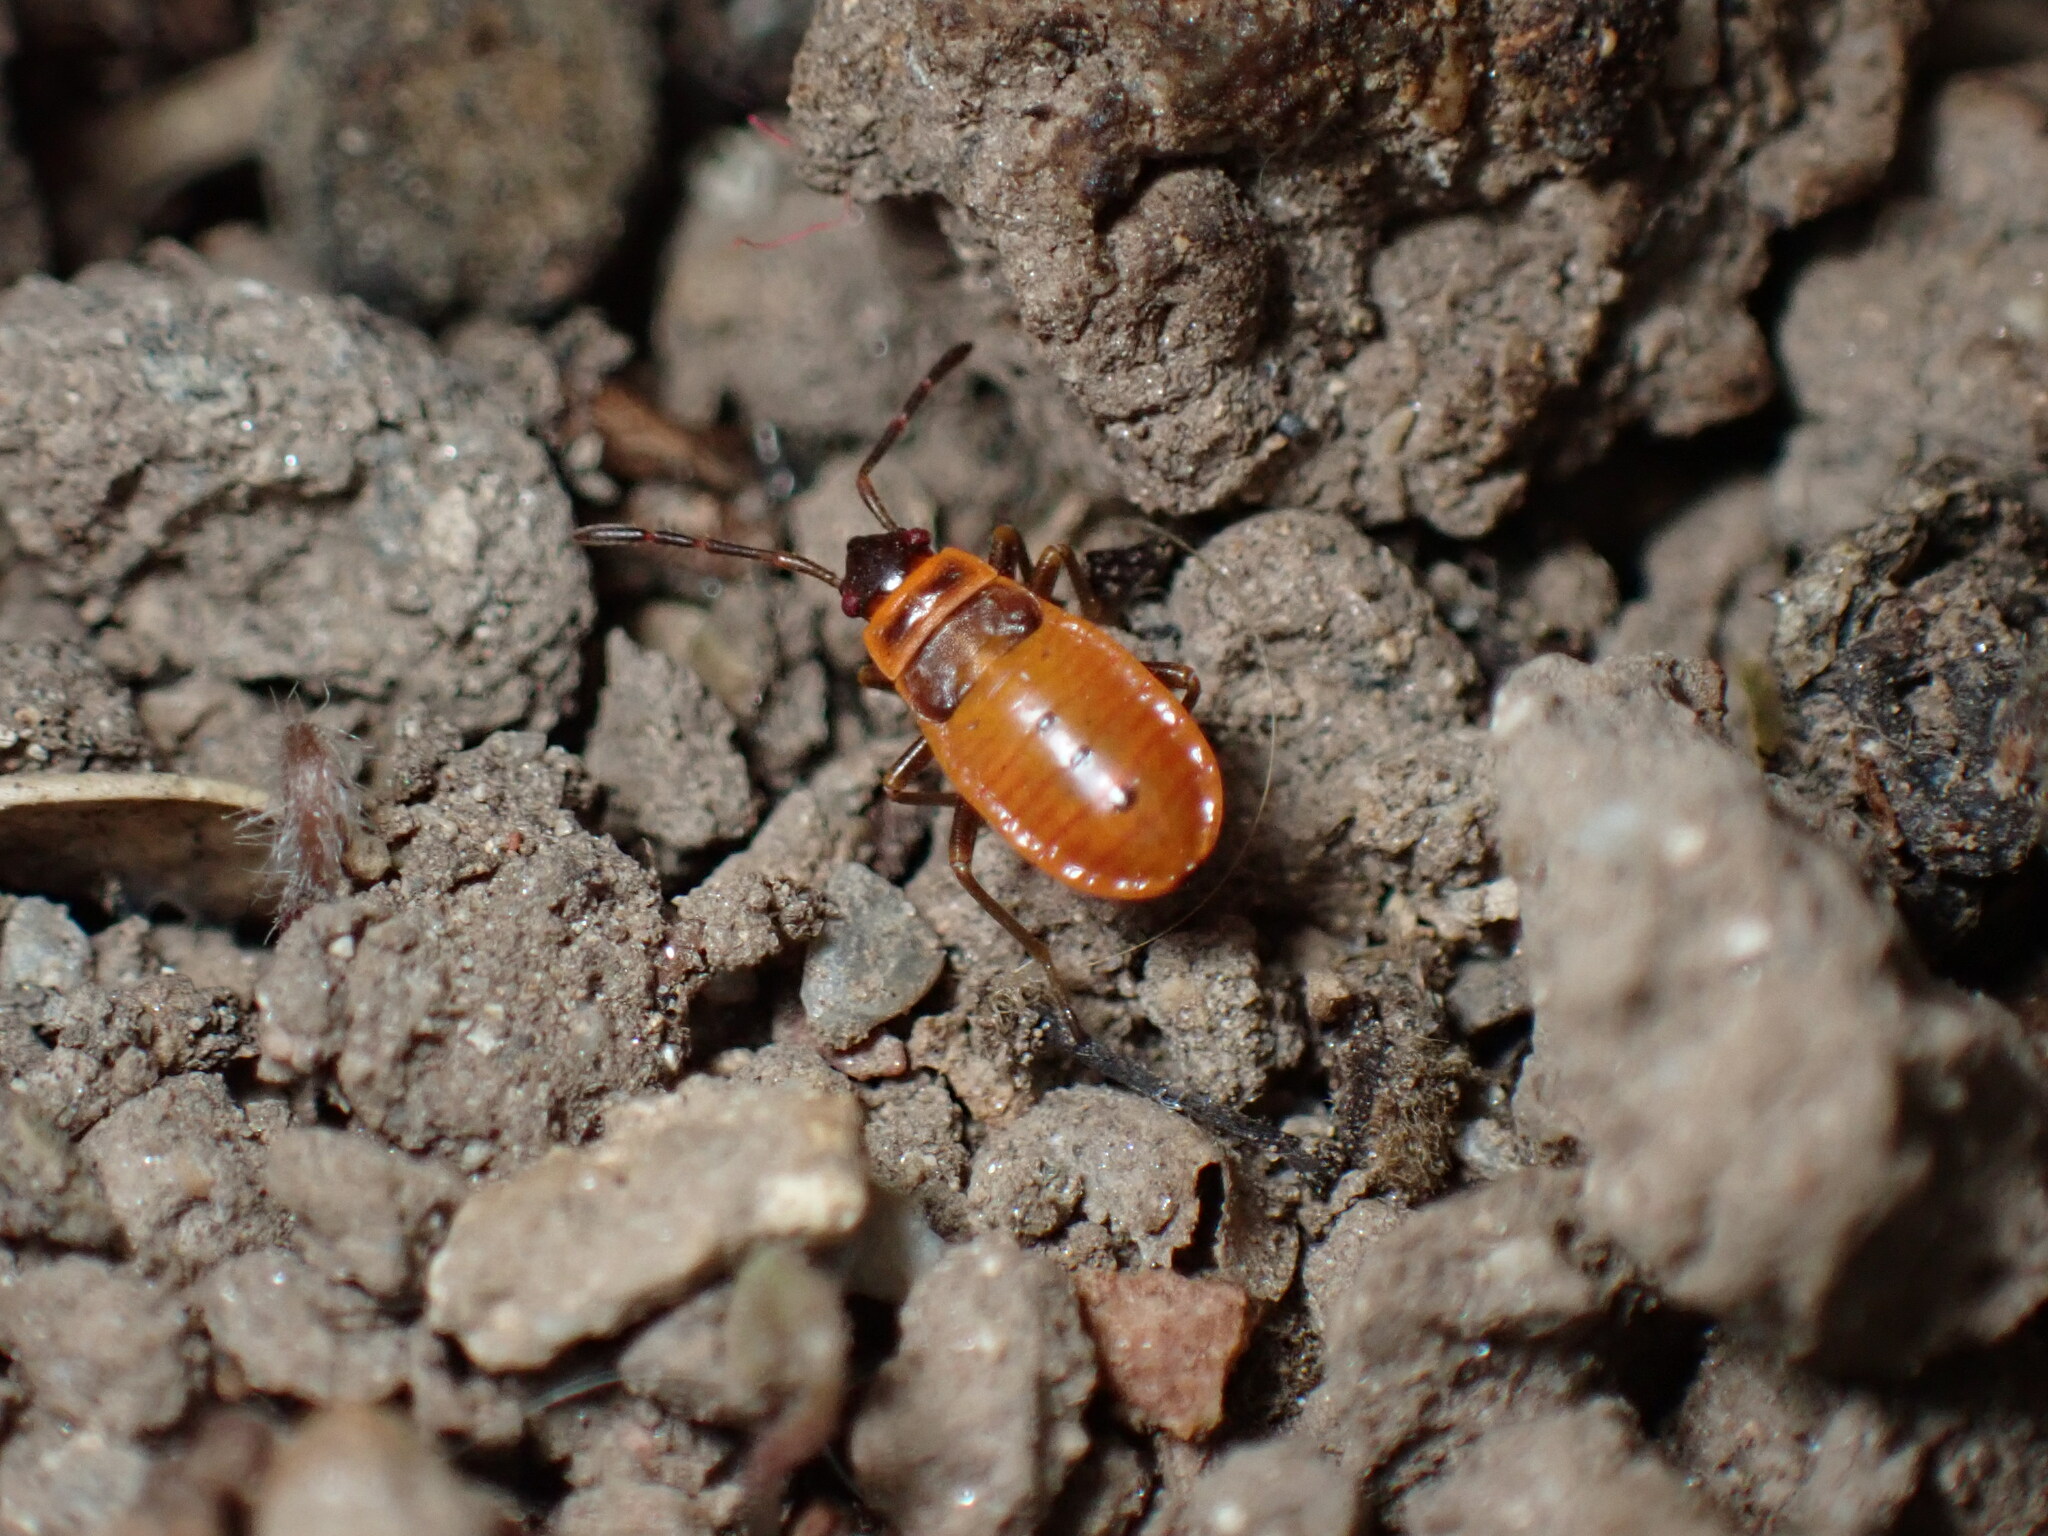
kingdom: Animalia
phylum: Arthropoda
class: Insecta
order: Hemiptera
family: Pyrrhocoridae
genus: Pyrrhocoris
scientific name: Pyrrhocoris apterus
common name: Firebug
